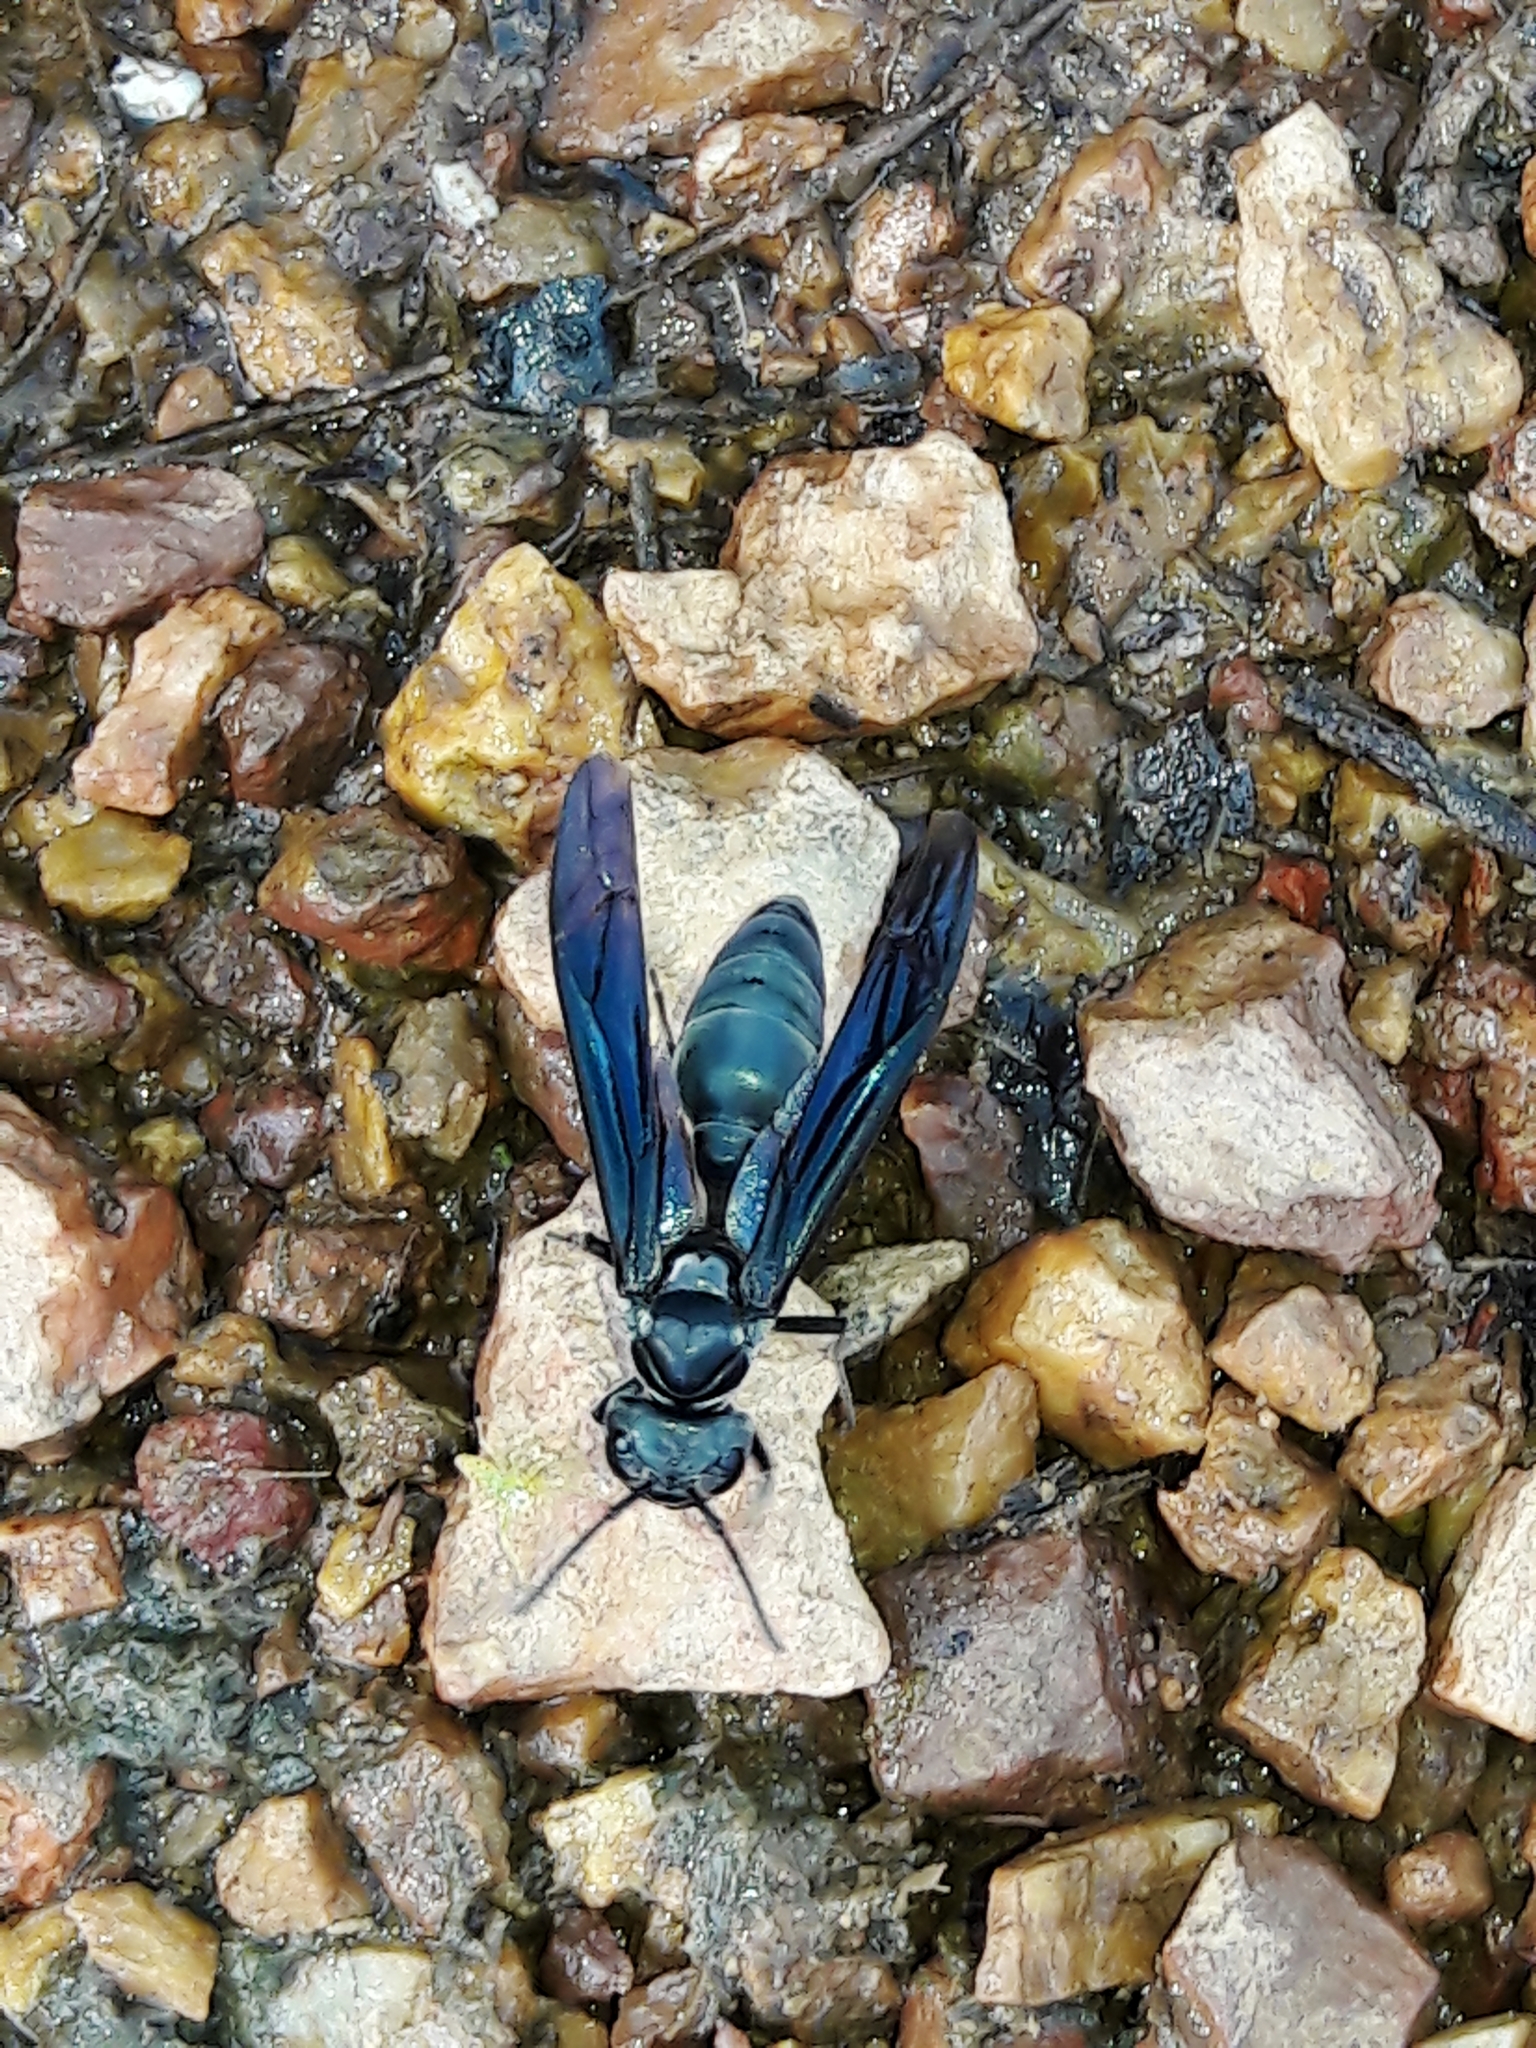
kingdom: Animalia
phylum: Arthropoda
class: Insecta
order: Hymenoptera
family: Vespidae
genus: Synoeca
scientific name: Synoeca surinama
